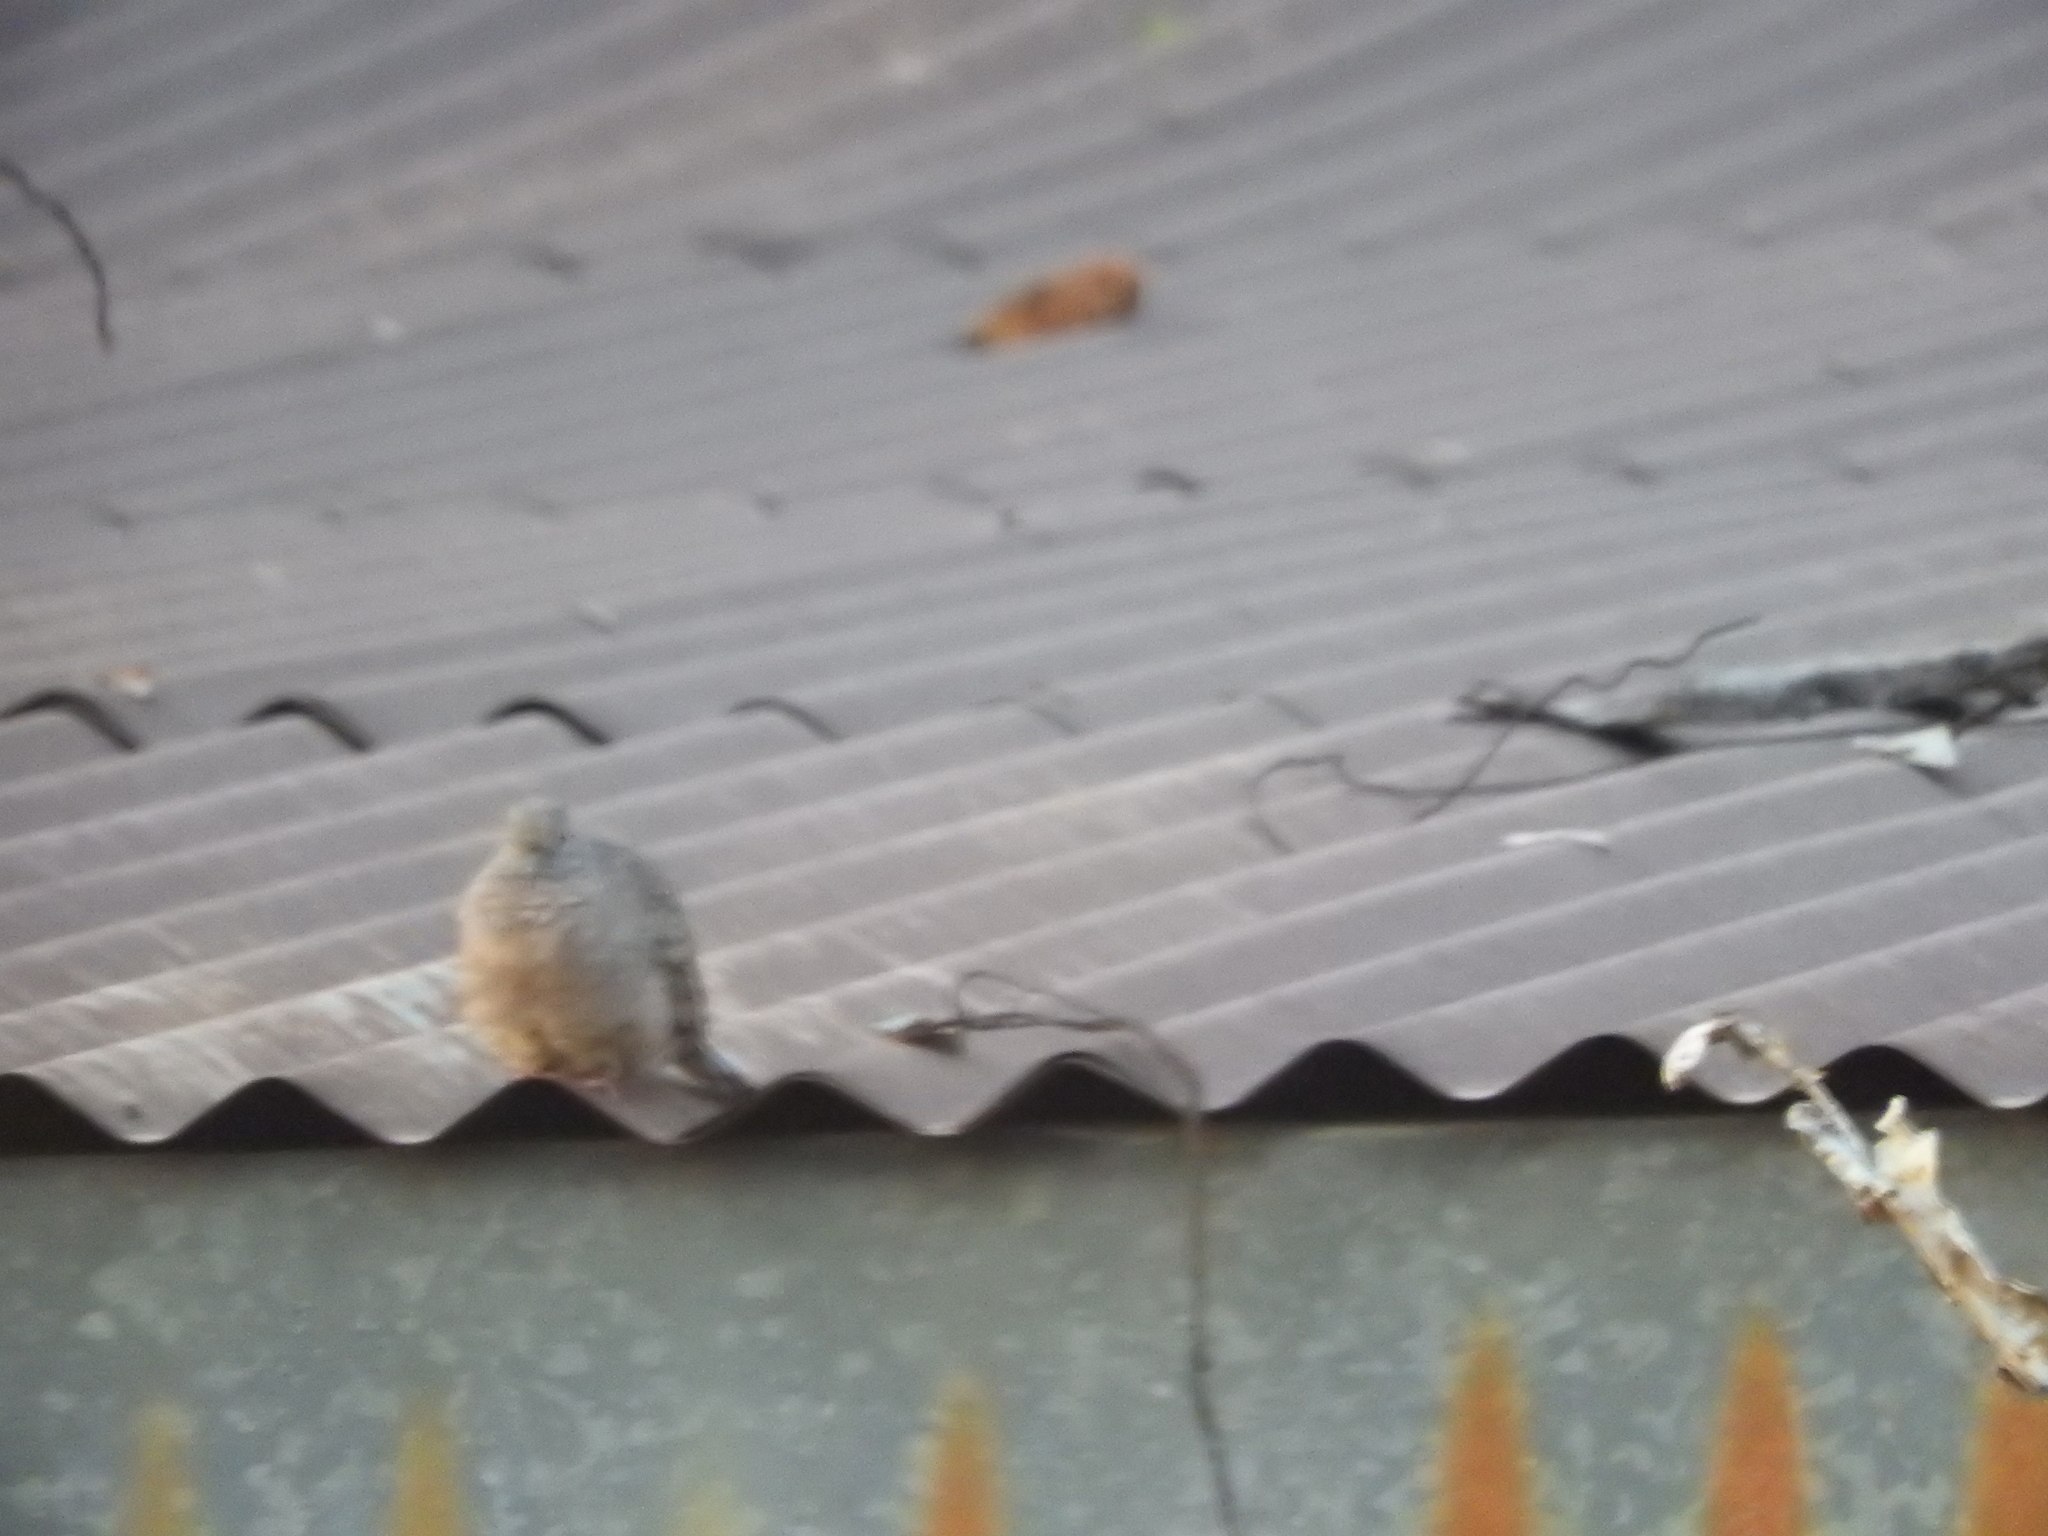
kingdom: Animalia
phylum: Chordata
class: Aves
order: Columbiformes
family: Columbidae
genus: Columbina
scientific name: Columbina inca
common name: Inca dove
